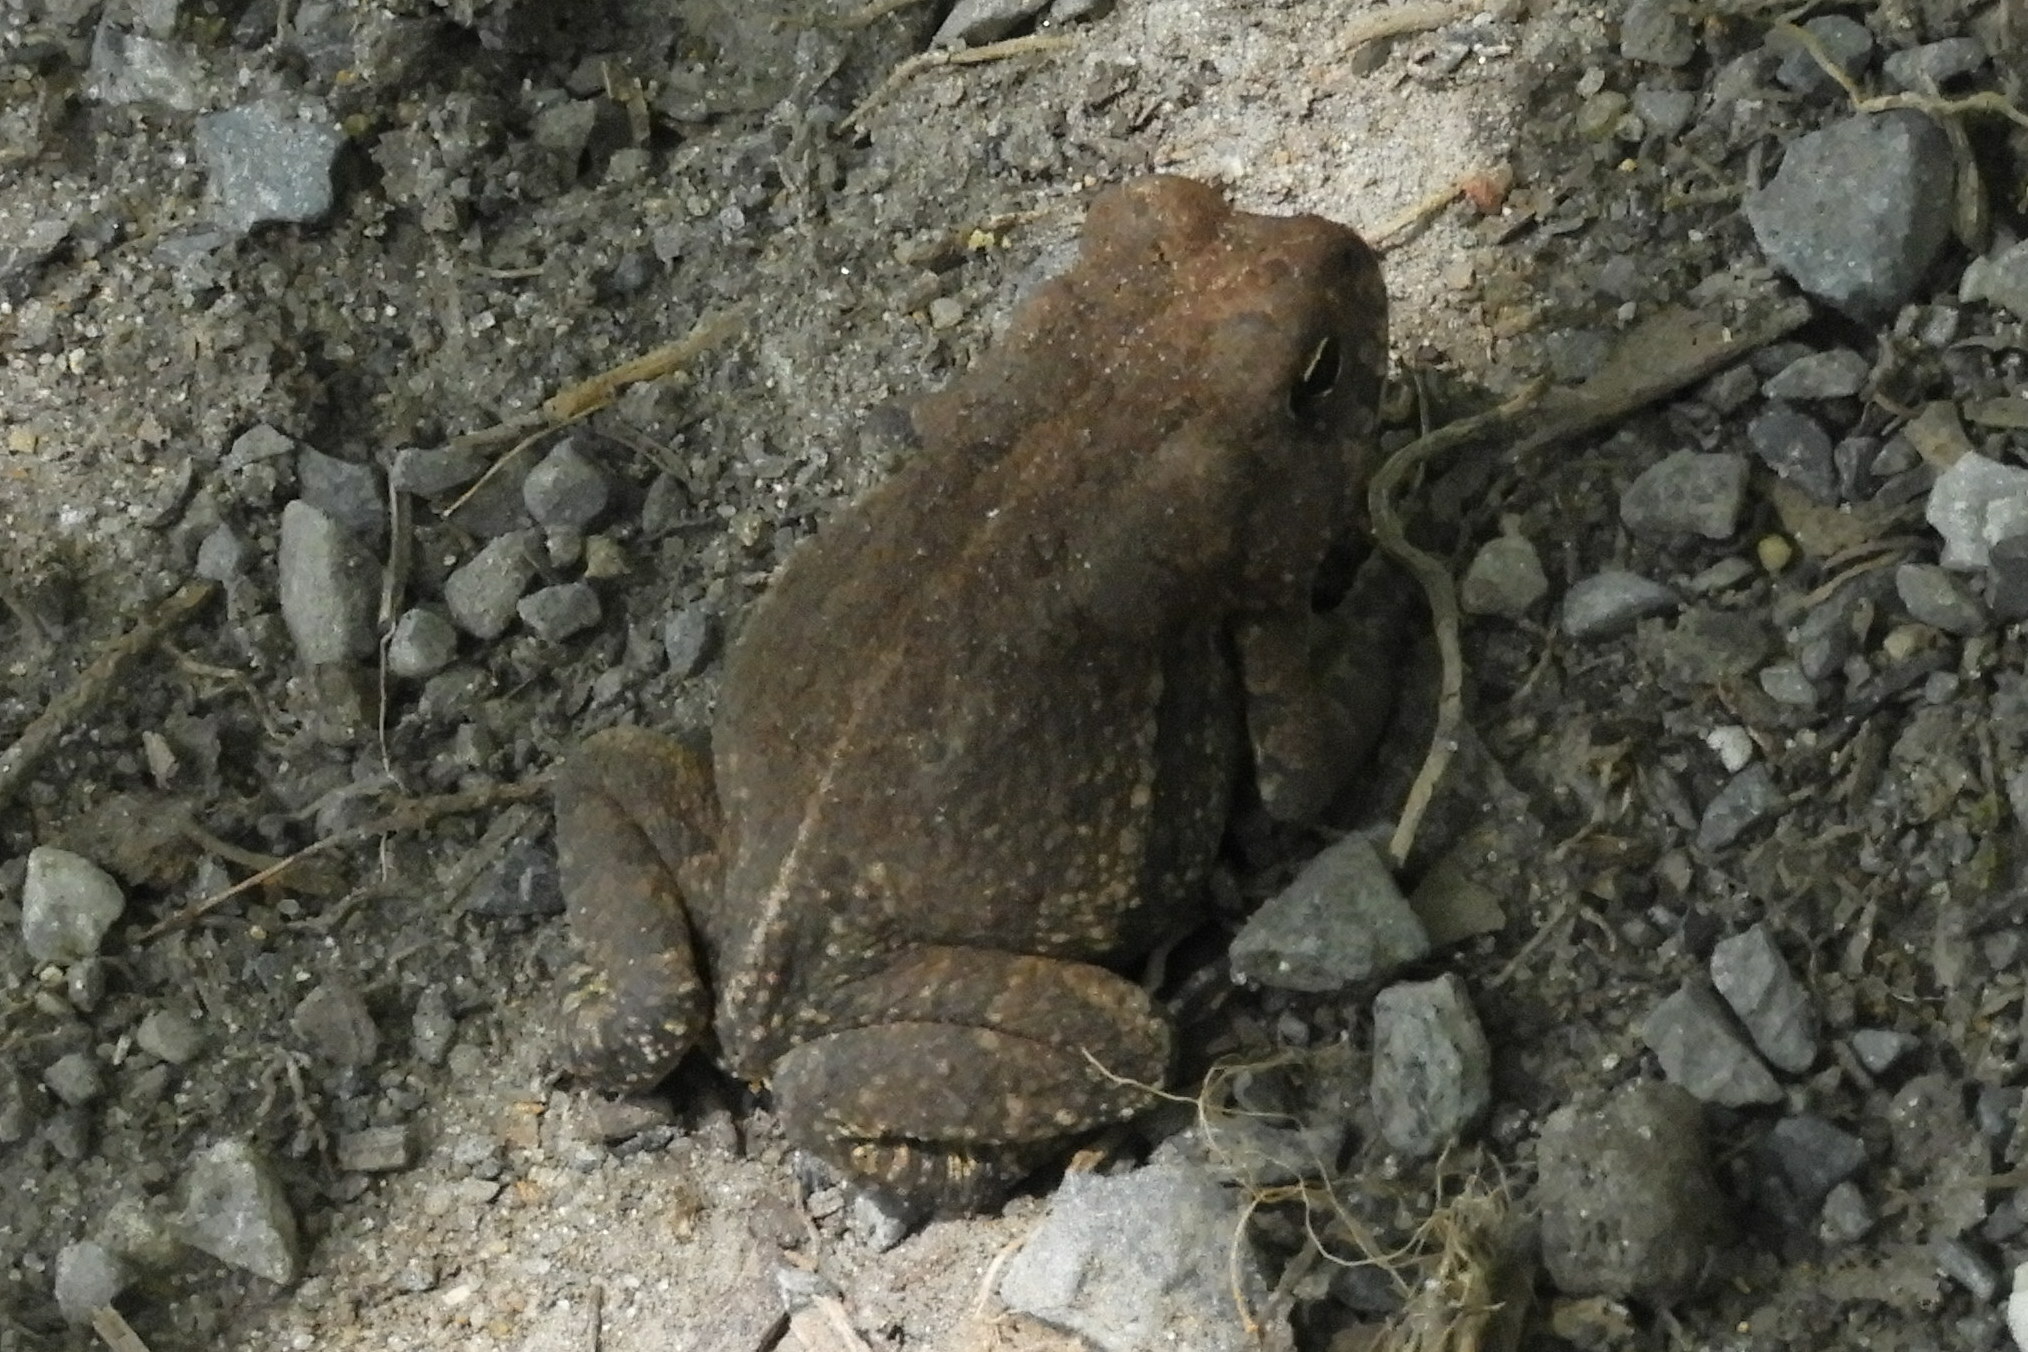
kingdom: Animalia
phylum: Chordata
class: Amphibia
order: Anura
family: Bufonidae
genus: Anaxyrus
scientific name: Anaxyrus fowleri
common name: Fowler's toad
